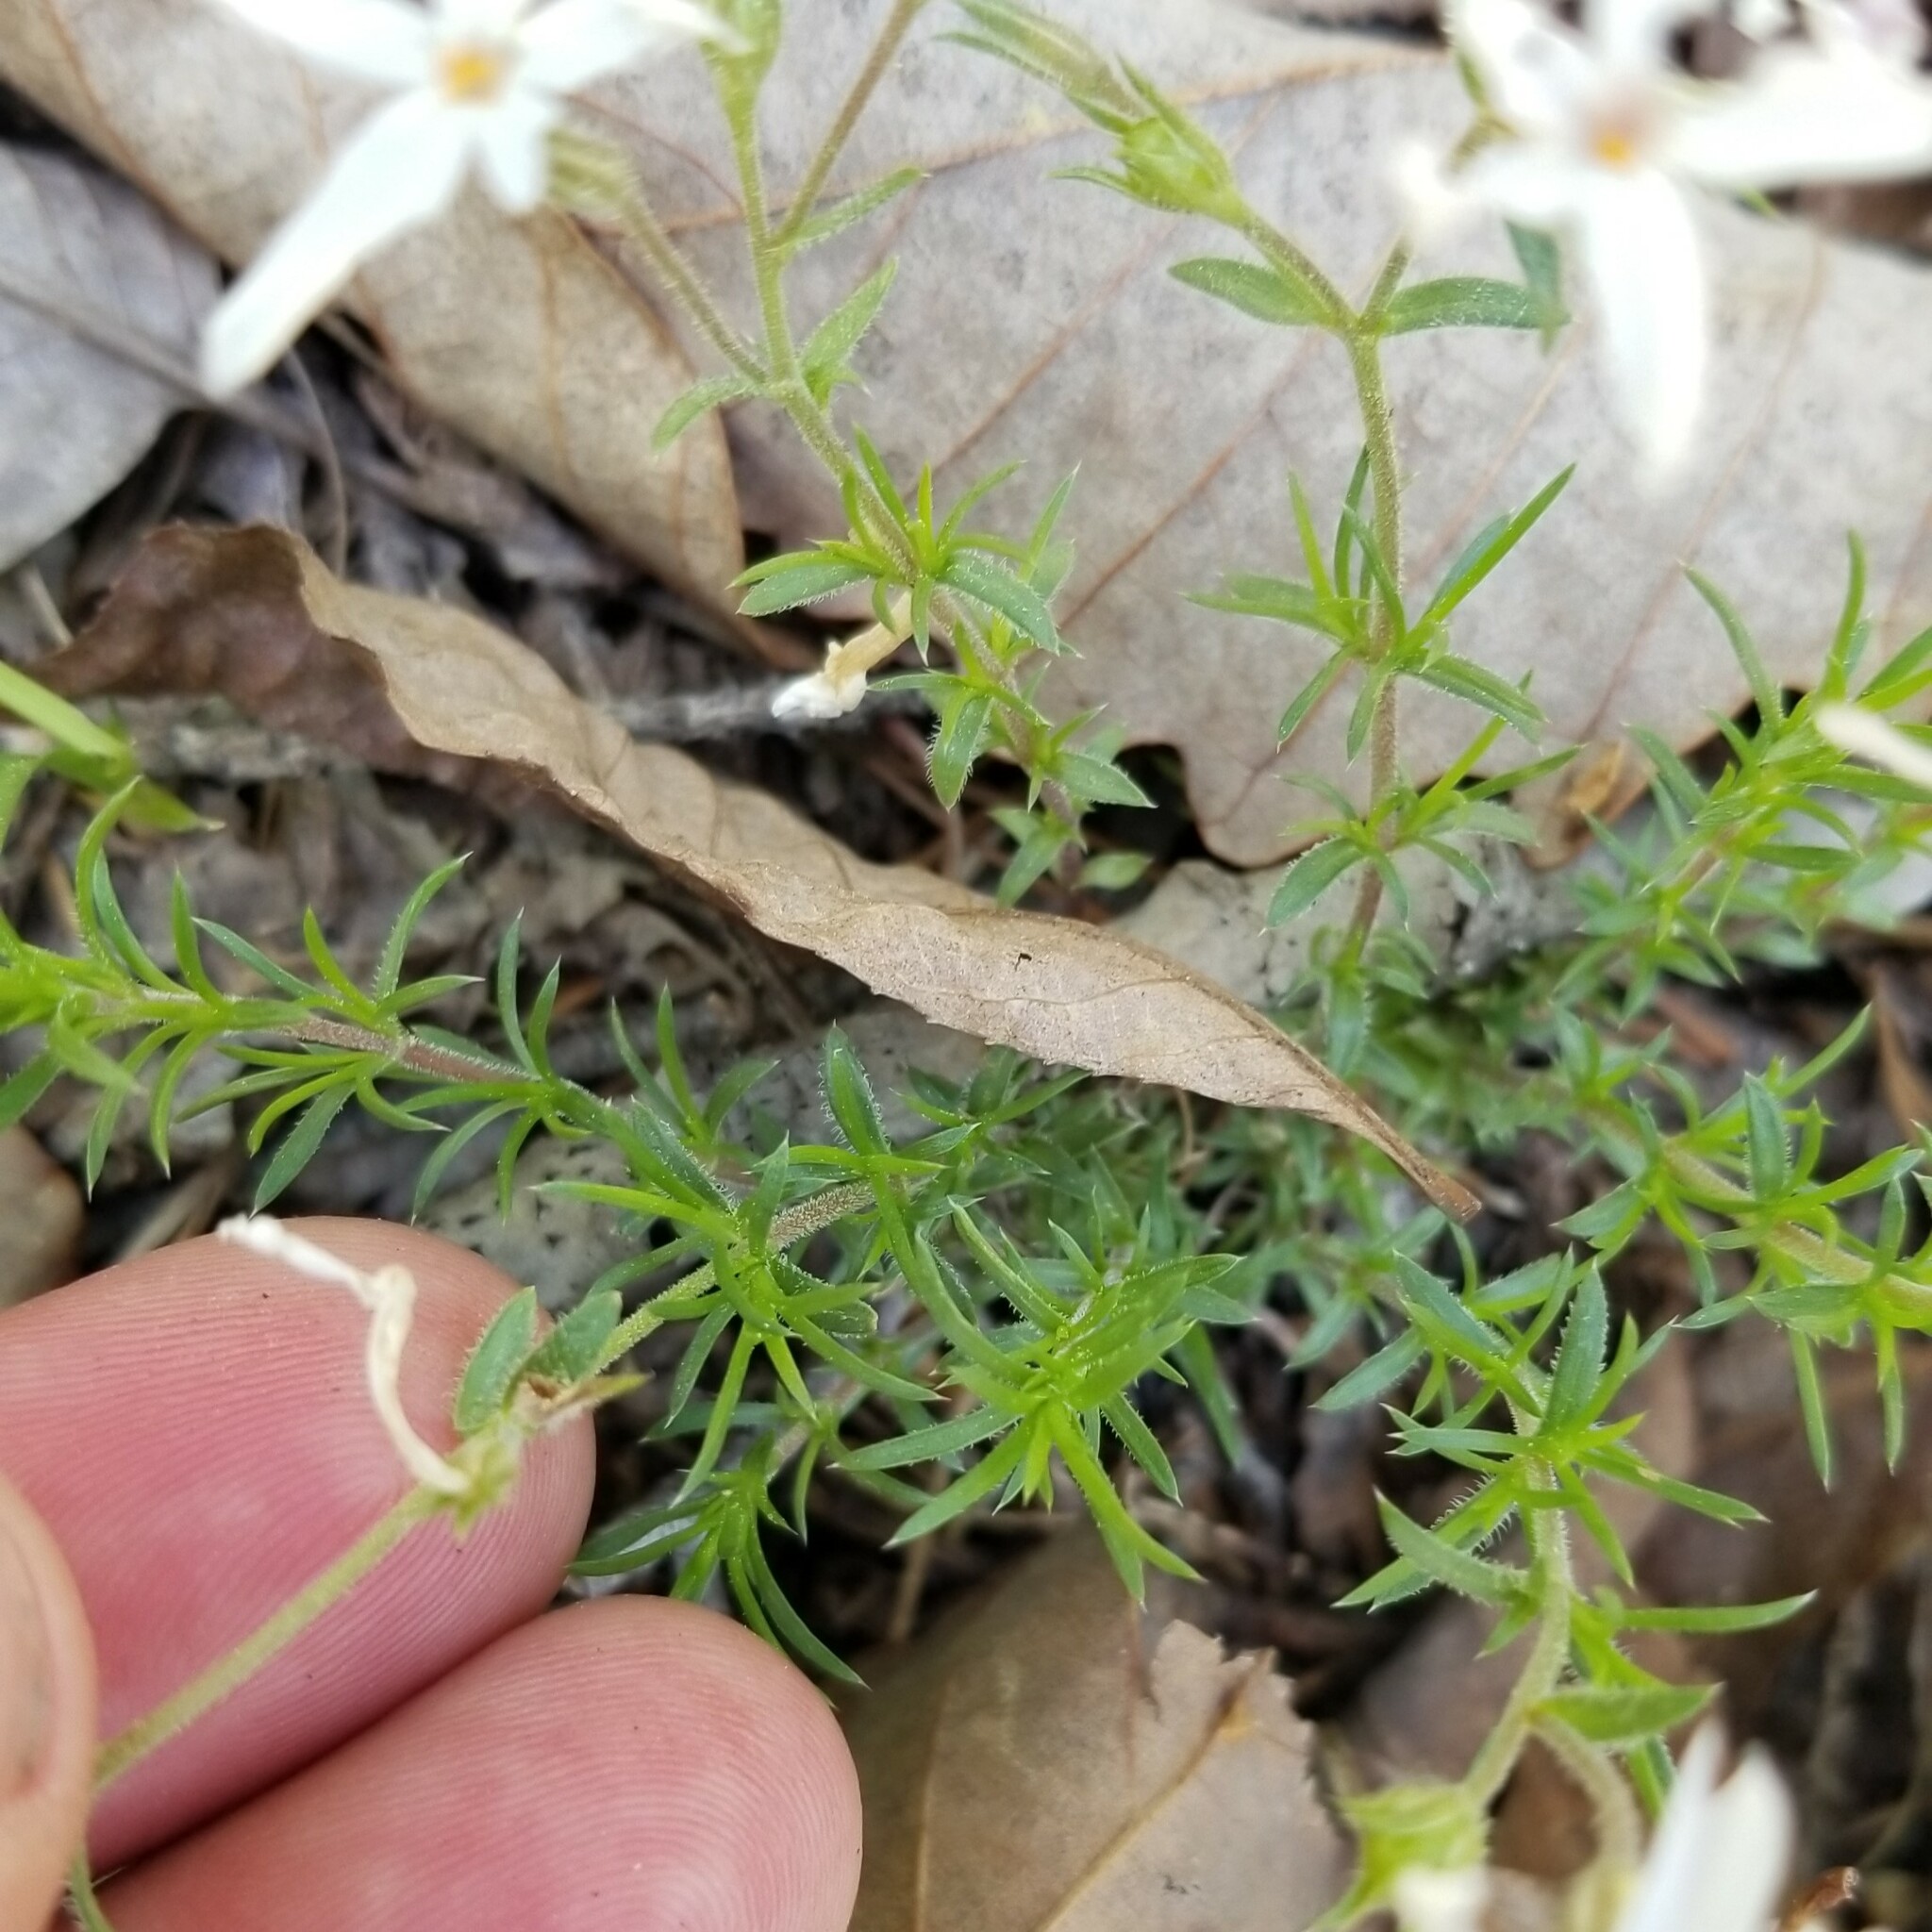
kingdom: Plantae
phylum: Tracheophyta
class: Magnoliopsida
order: Ericales
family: Polemoniaceae
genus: Phlox
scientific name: Phlox subulata
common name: Moss phlox
